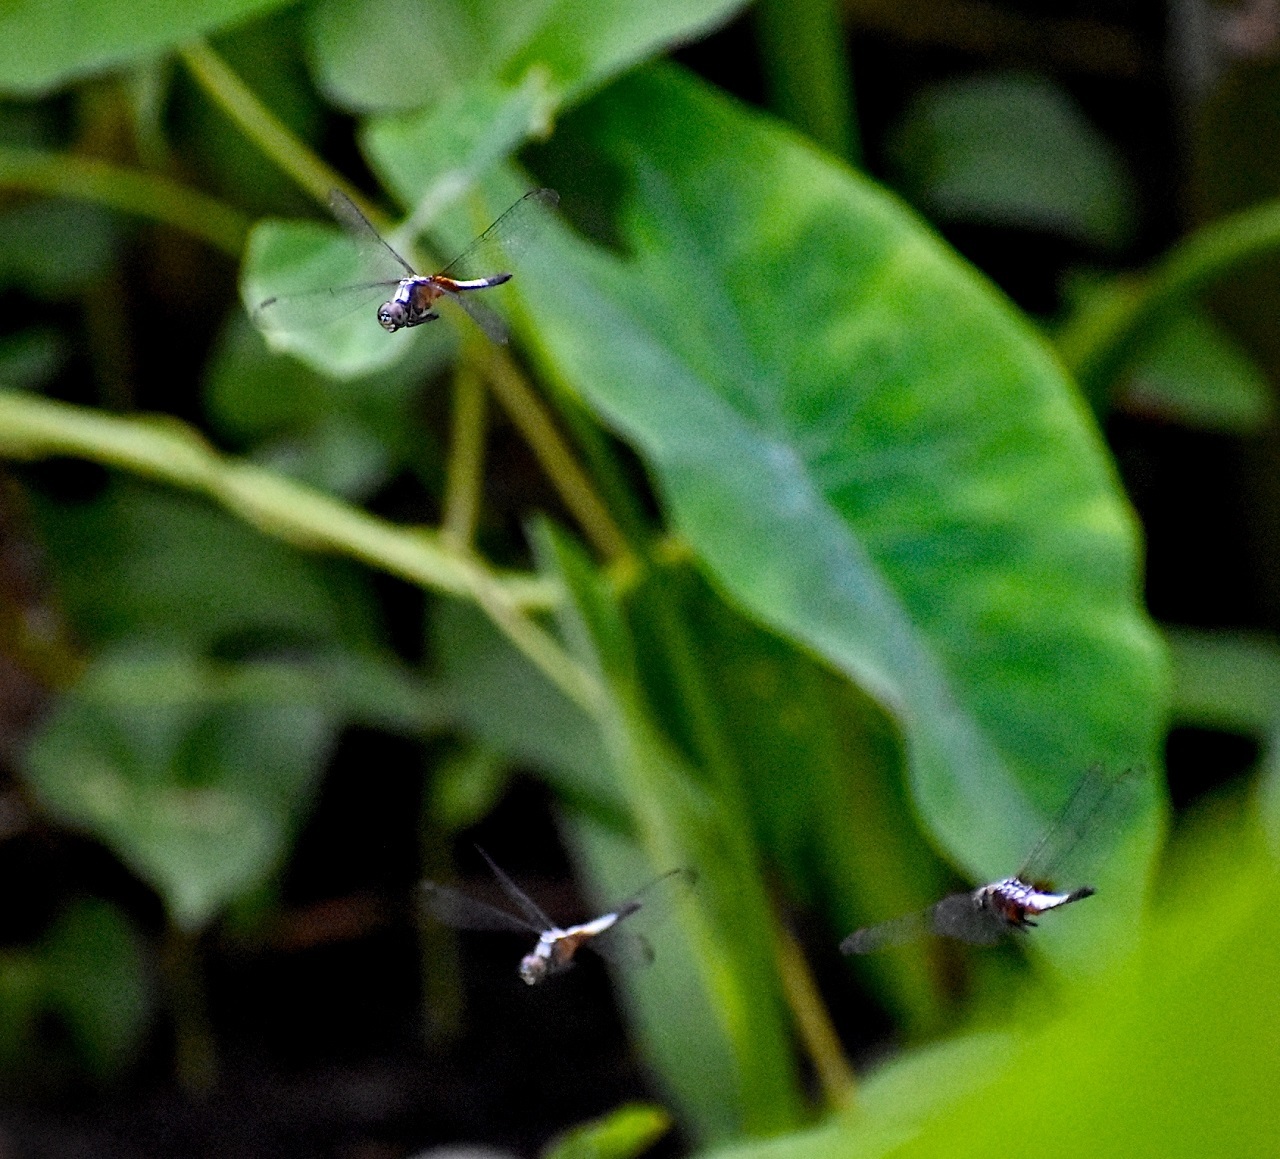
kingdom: Animalia
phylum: Arthropoda
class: Insecta
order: Odonata
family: Libellulidae
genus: Brachydiplax
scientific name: Brachydiplax chalybea
